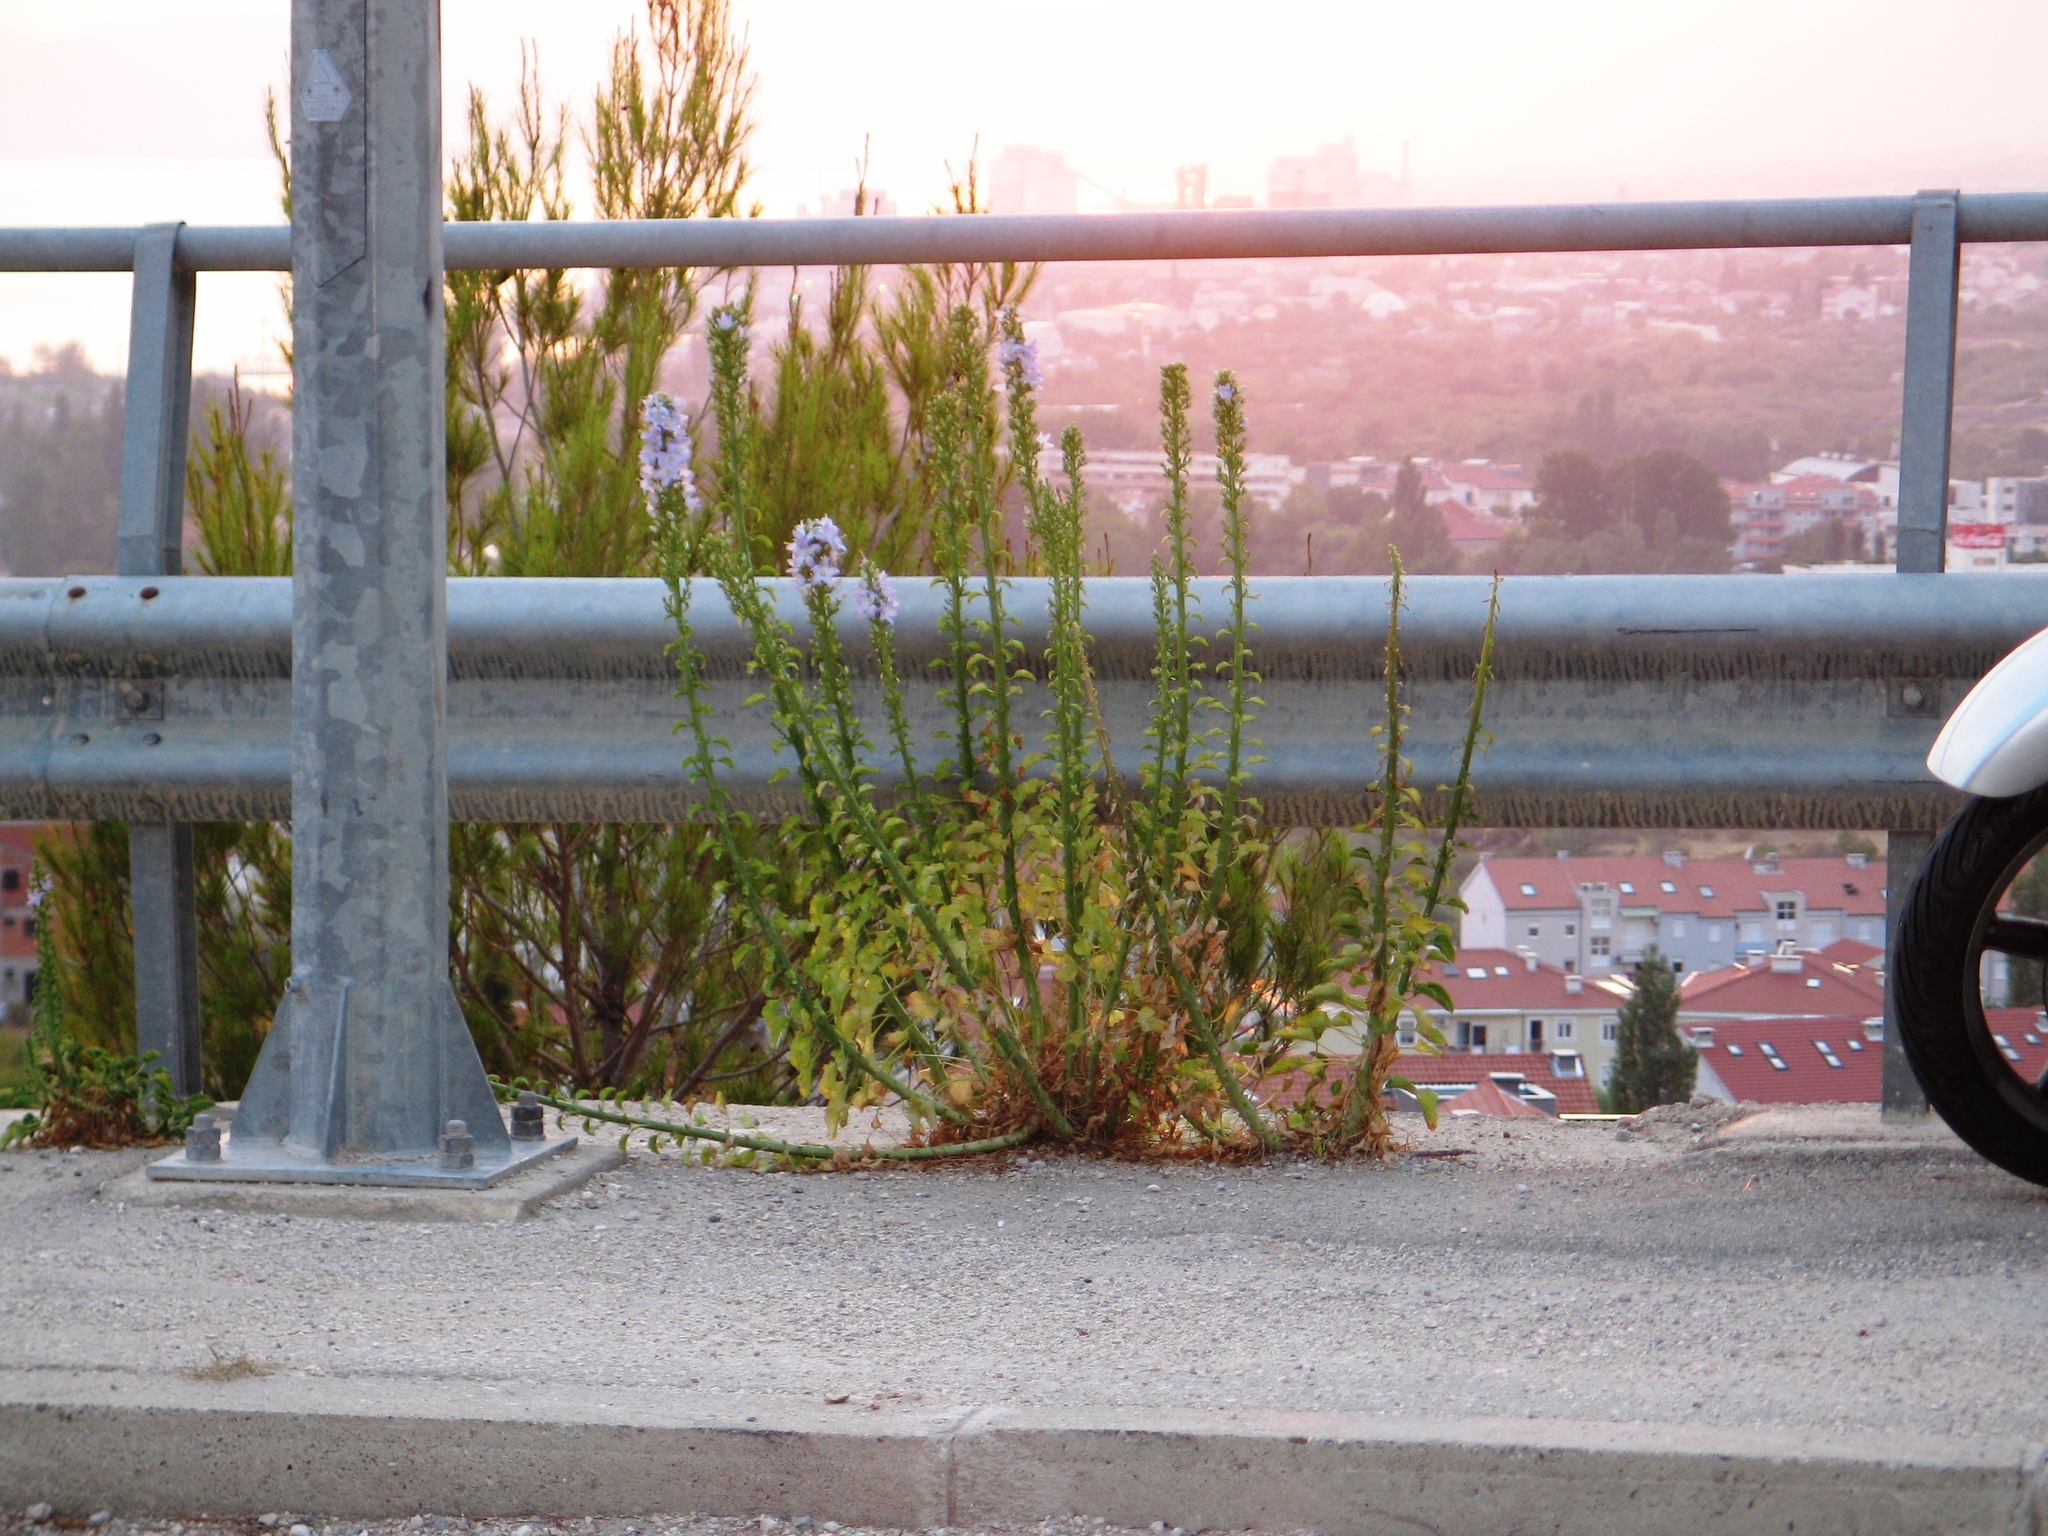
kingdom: Plantae
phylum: Tracheophyta
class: Magnoliopsida
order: Asterales
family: Campanulaceae
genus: Campanula
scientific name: Campanula pyramidalis
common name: Chimney bellflower
